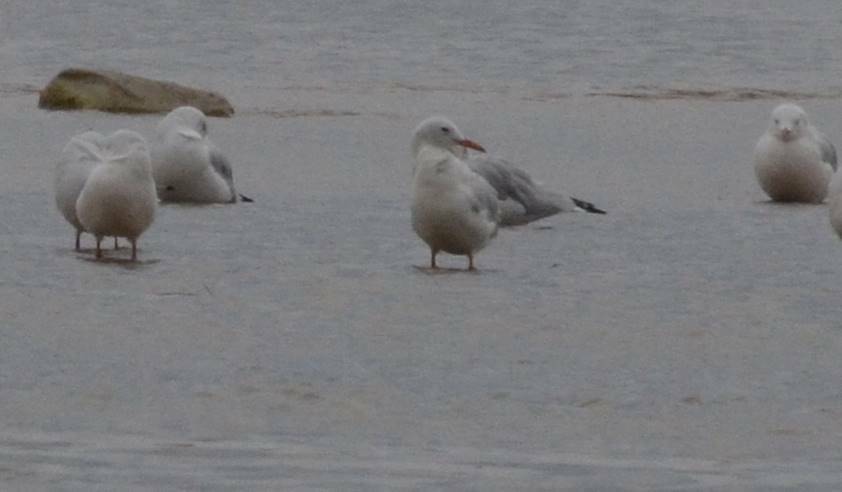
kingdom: Animalia
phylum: Chordata
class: Aves
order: Charadriiformes
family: Laridae
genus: Chroicocephalus
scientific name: Chroicocephalus genei
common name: Slender-billed gull
